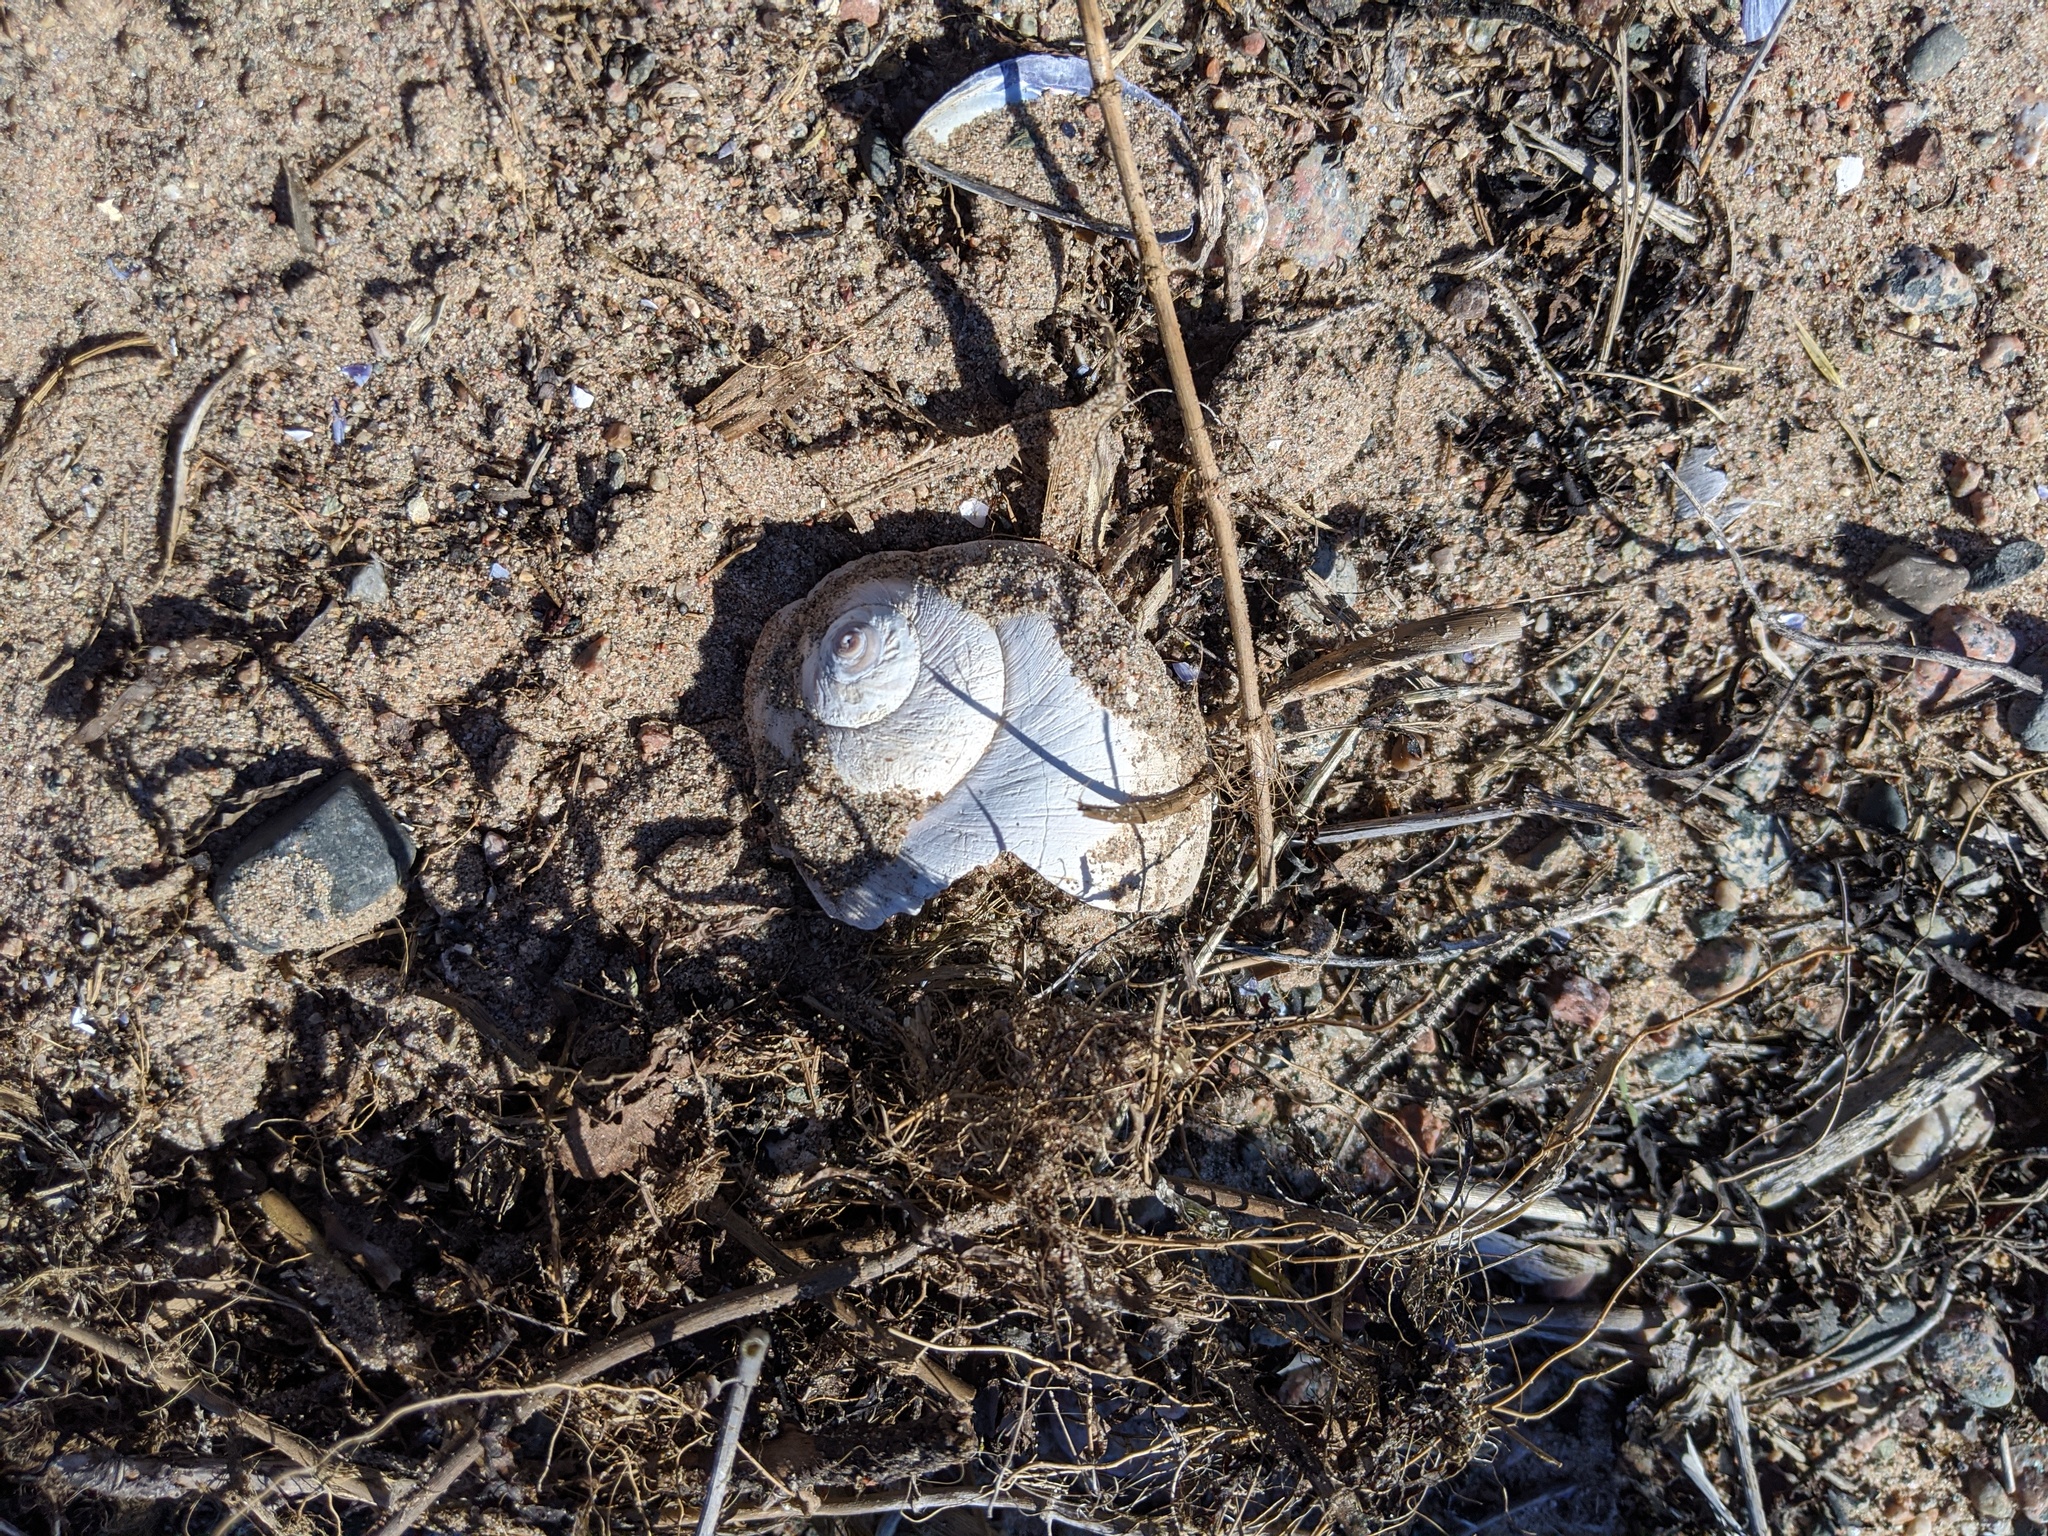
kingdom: Animalia
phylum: Mollusca
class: Gastropoda
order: Littorinimorpha
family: Naticidae
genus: Euspira
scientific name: Euspira heros
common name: Common northern moonsnail
